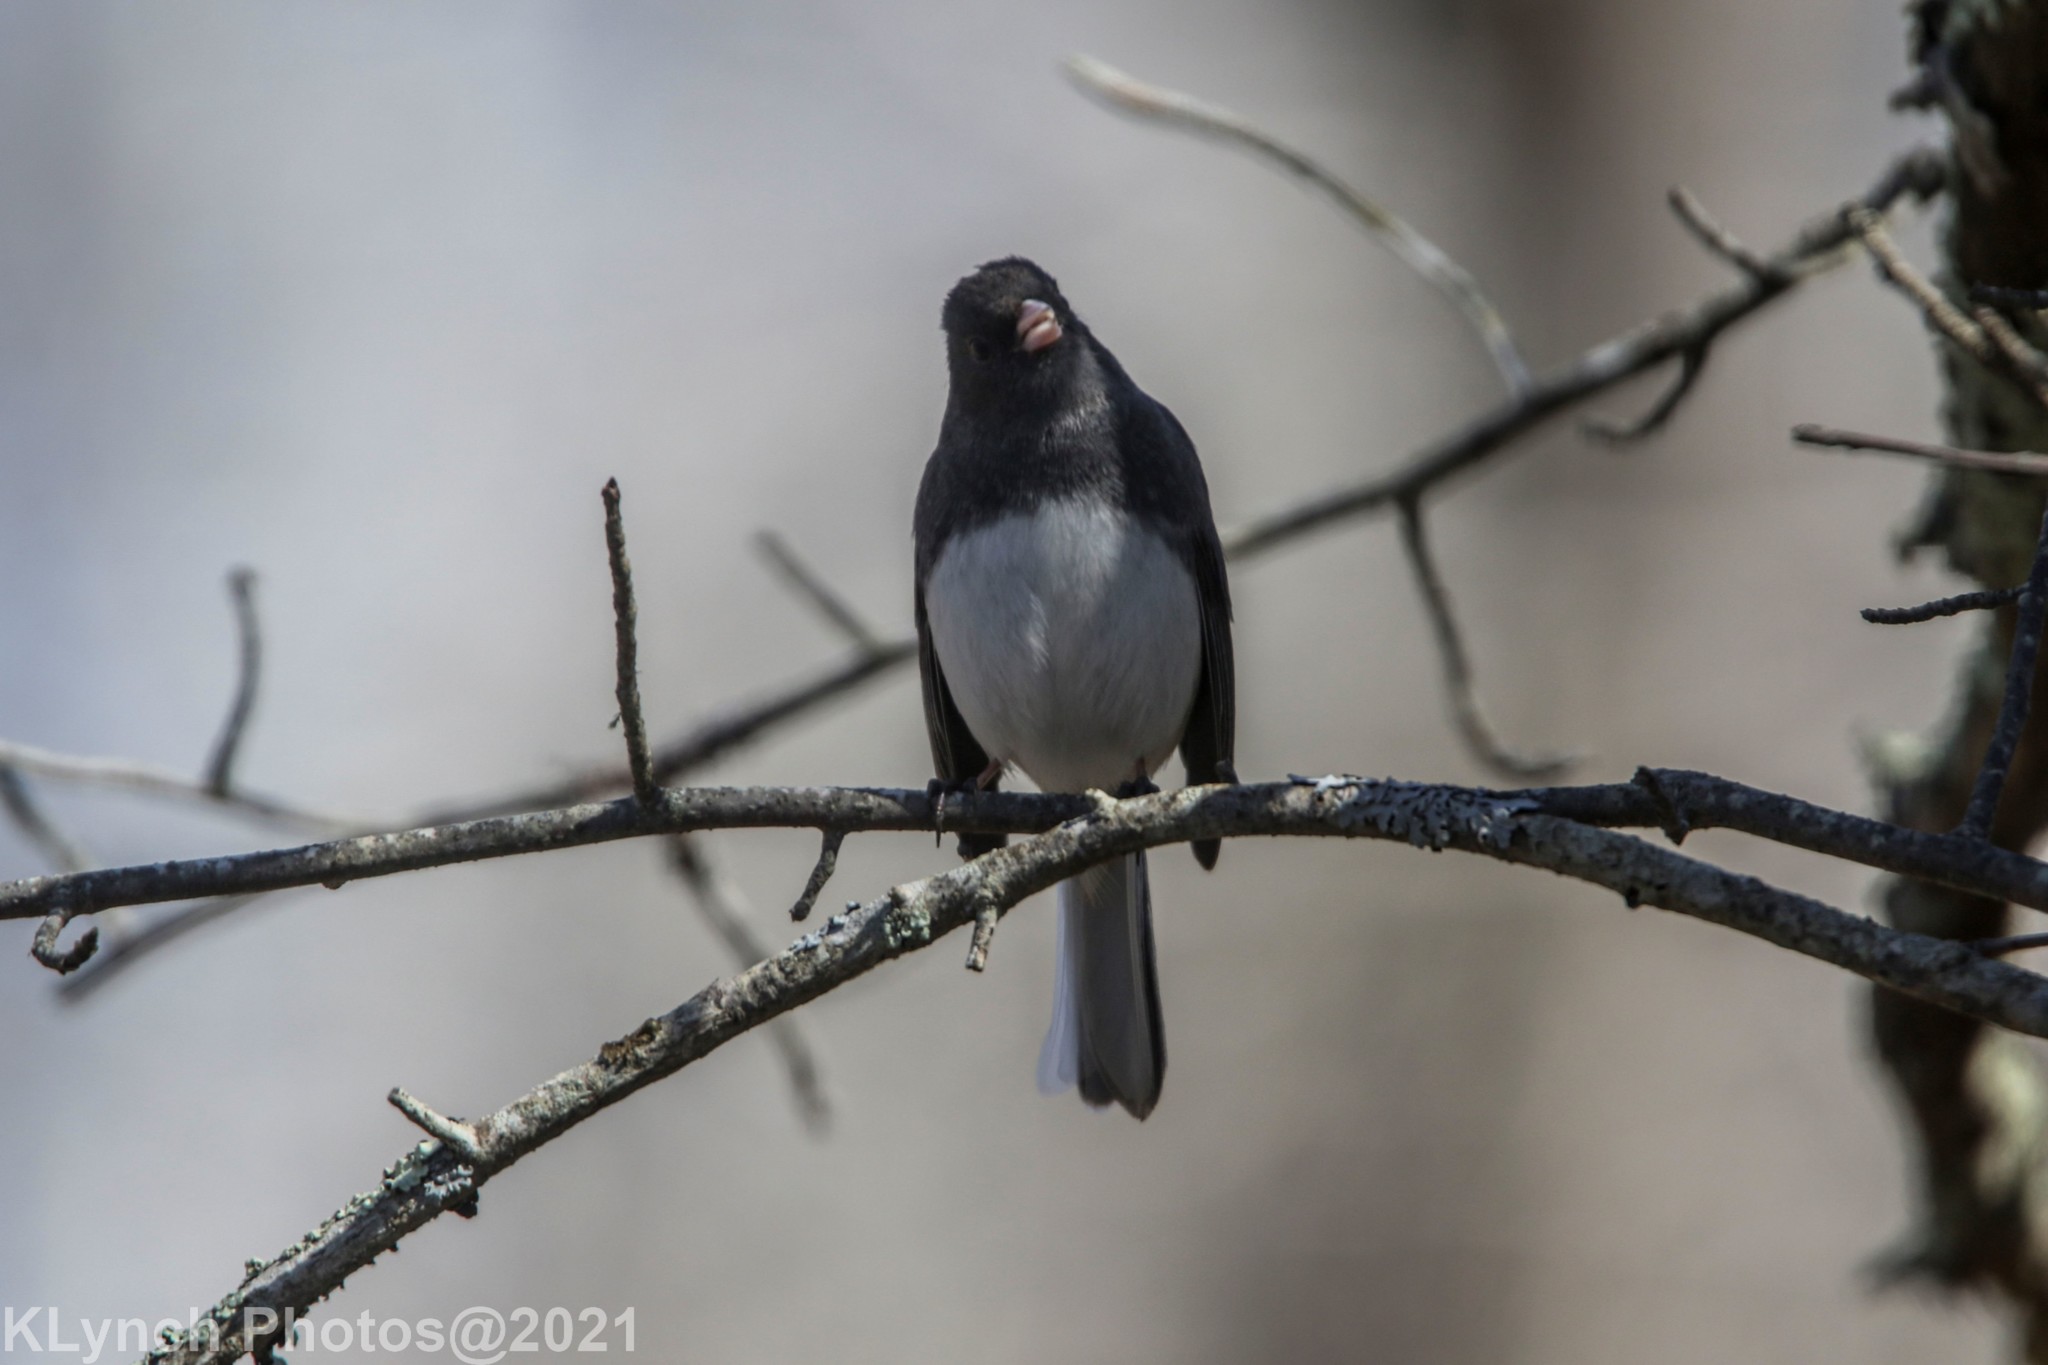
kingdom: Animalia
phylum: Chordata
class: Aves
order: Passeriformes
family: Passerellidae
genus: Junco
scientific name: Junco hyemalis
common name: Dark-eyed junco
